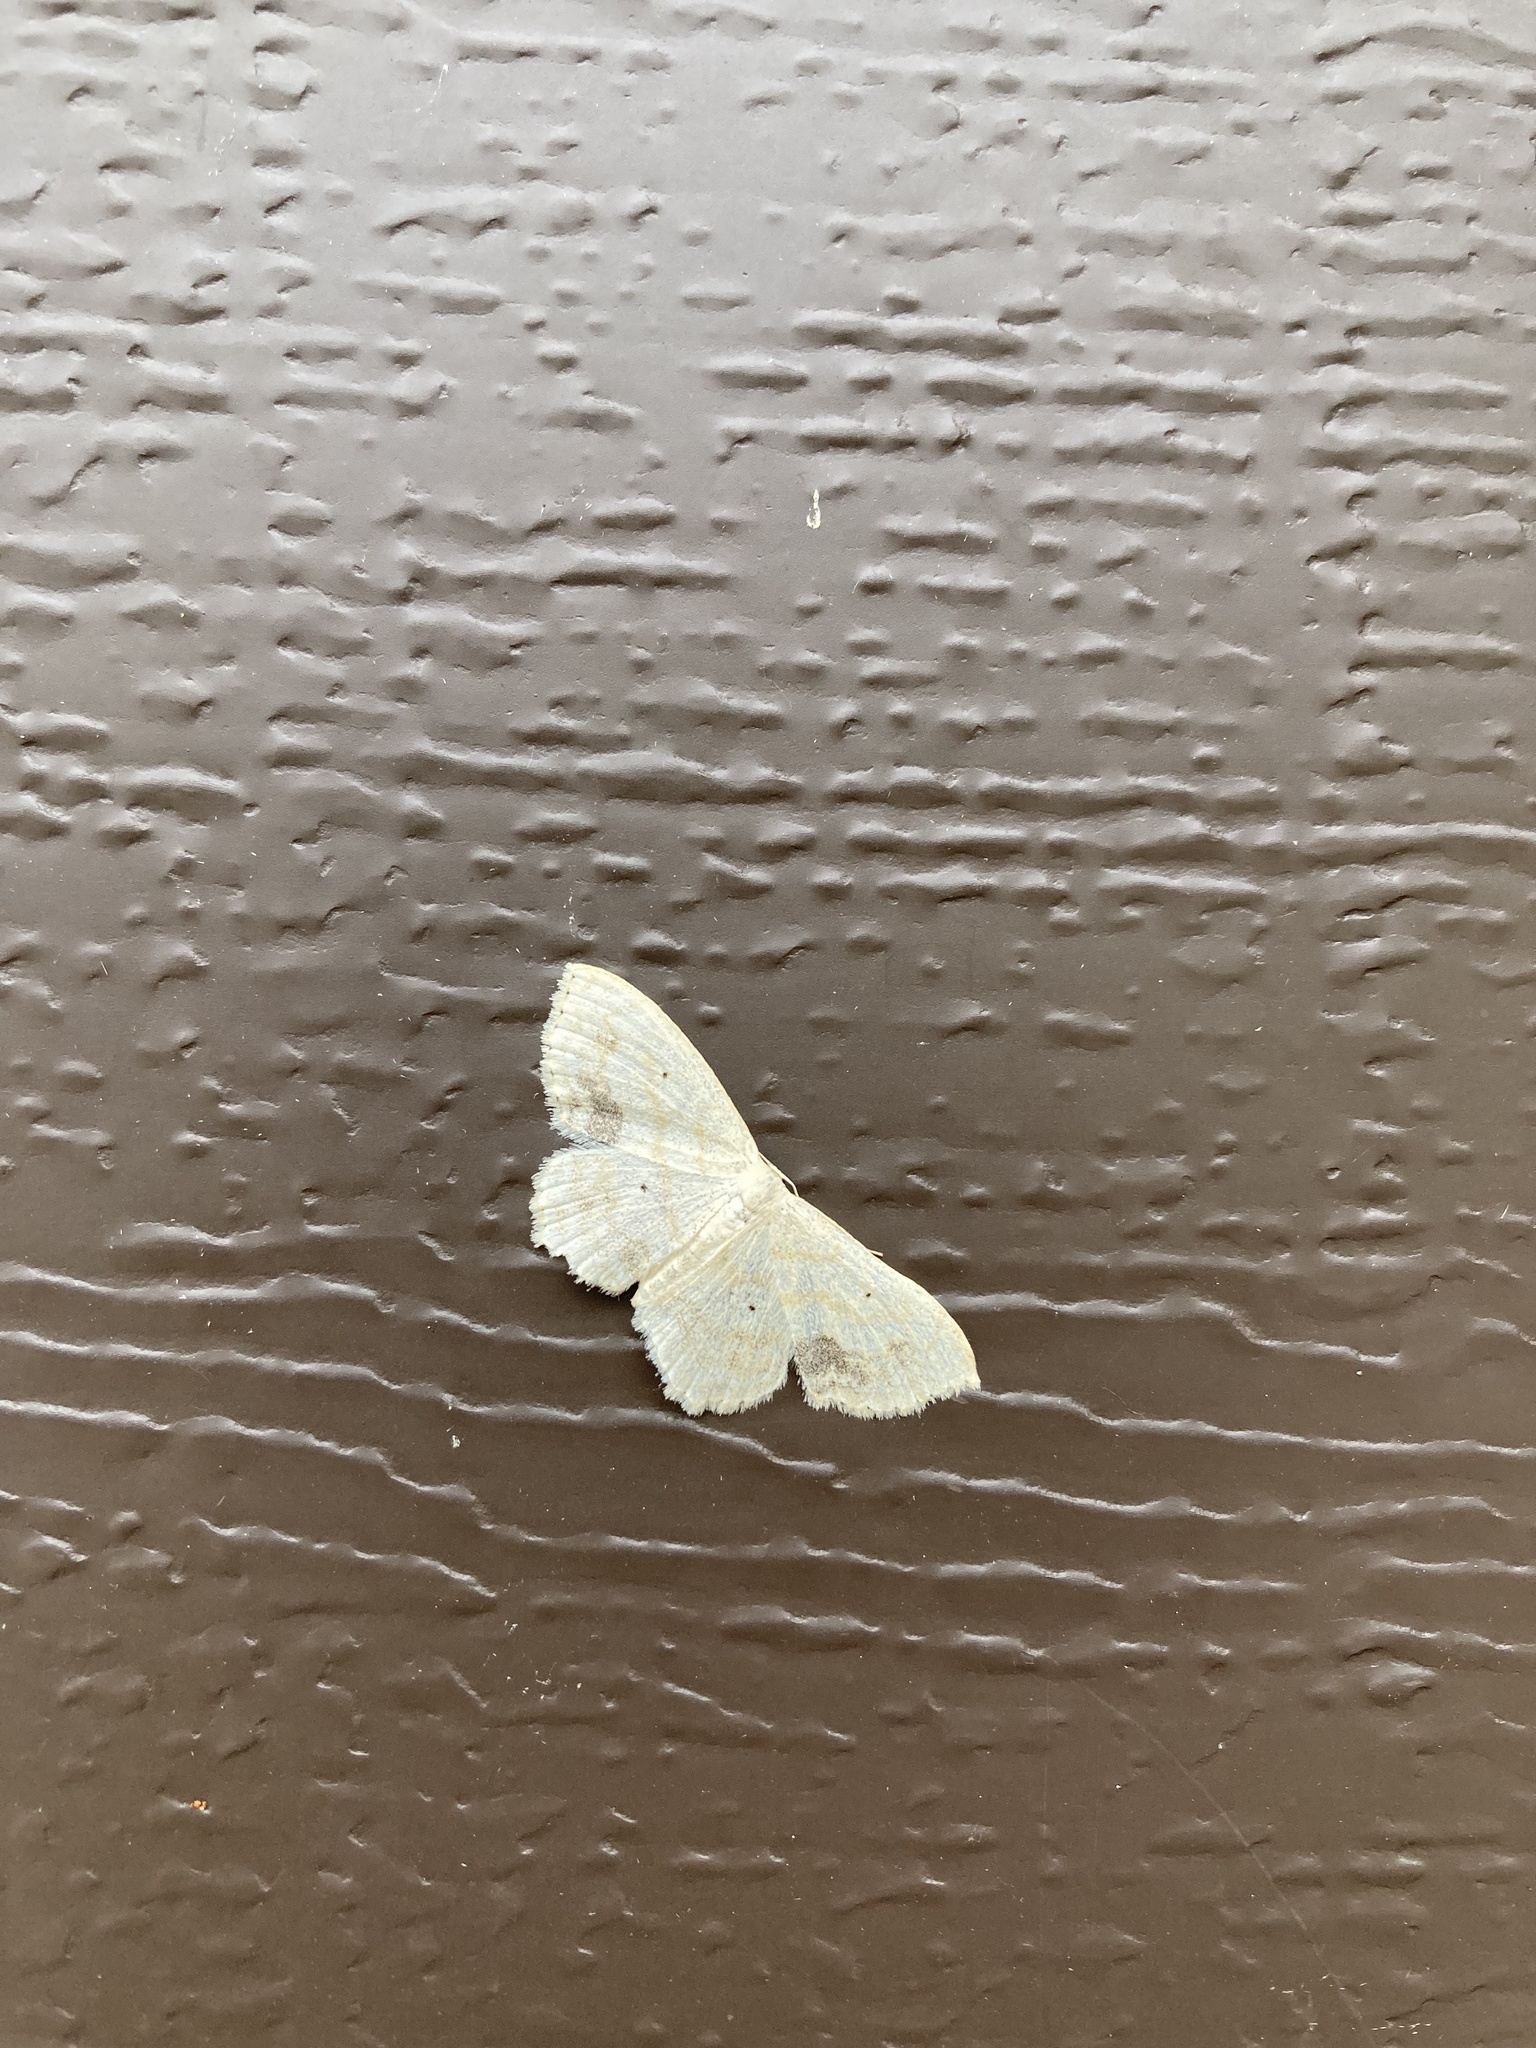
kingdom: Animalia
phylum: Arthropoda
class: Insecta
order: Lepidoptera
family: Geometridae
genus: Scopula
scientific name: Scopula limboundata
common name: Large lace border
